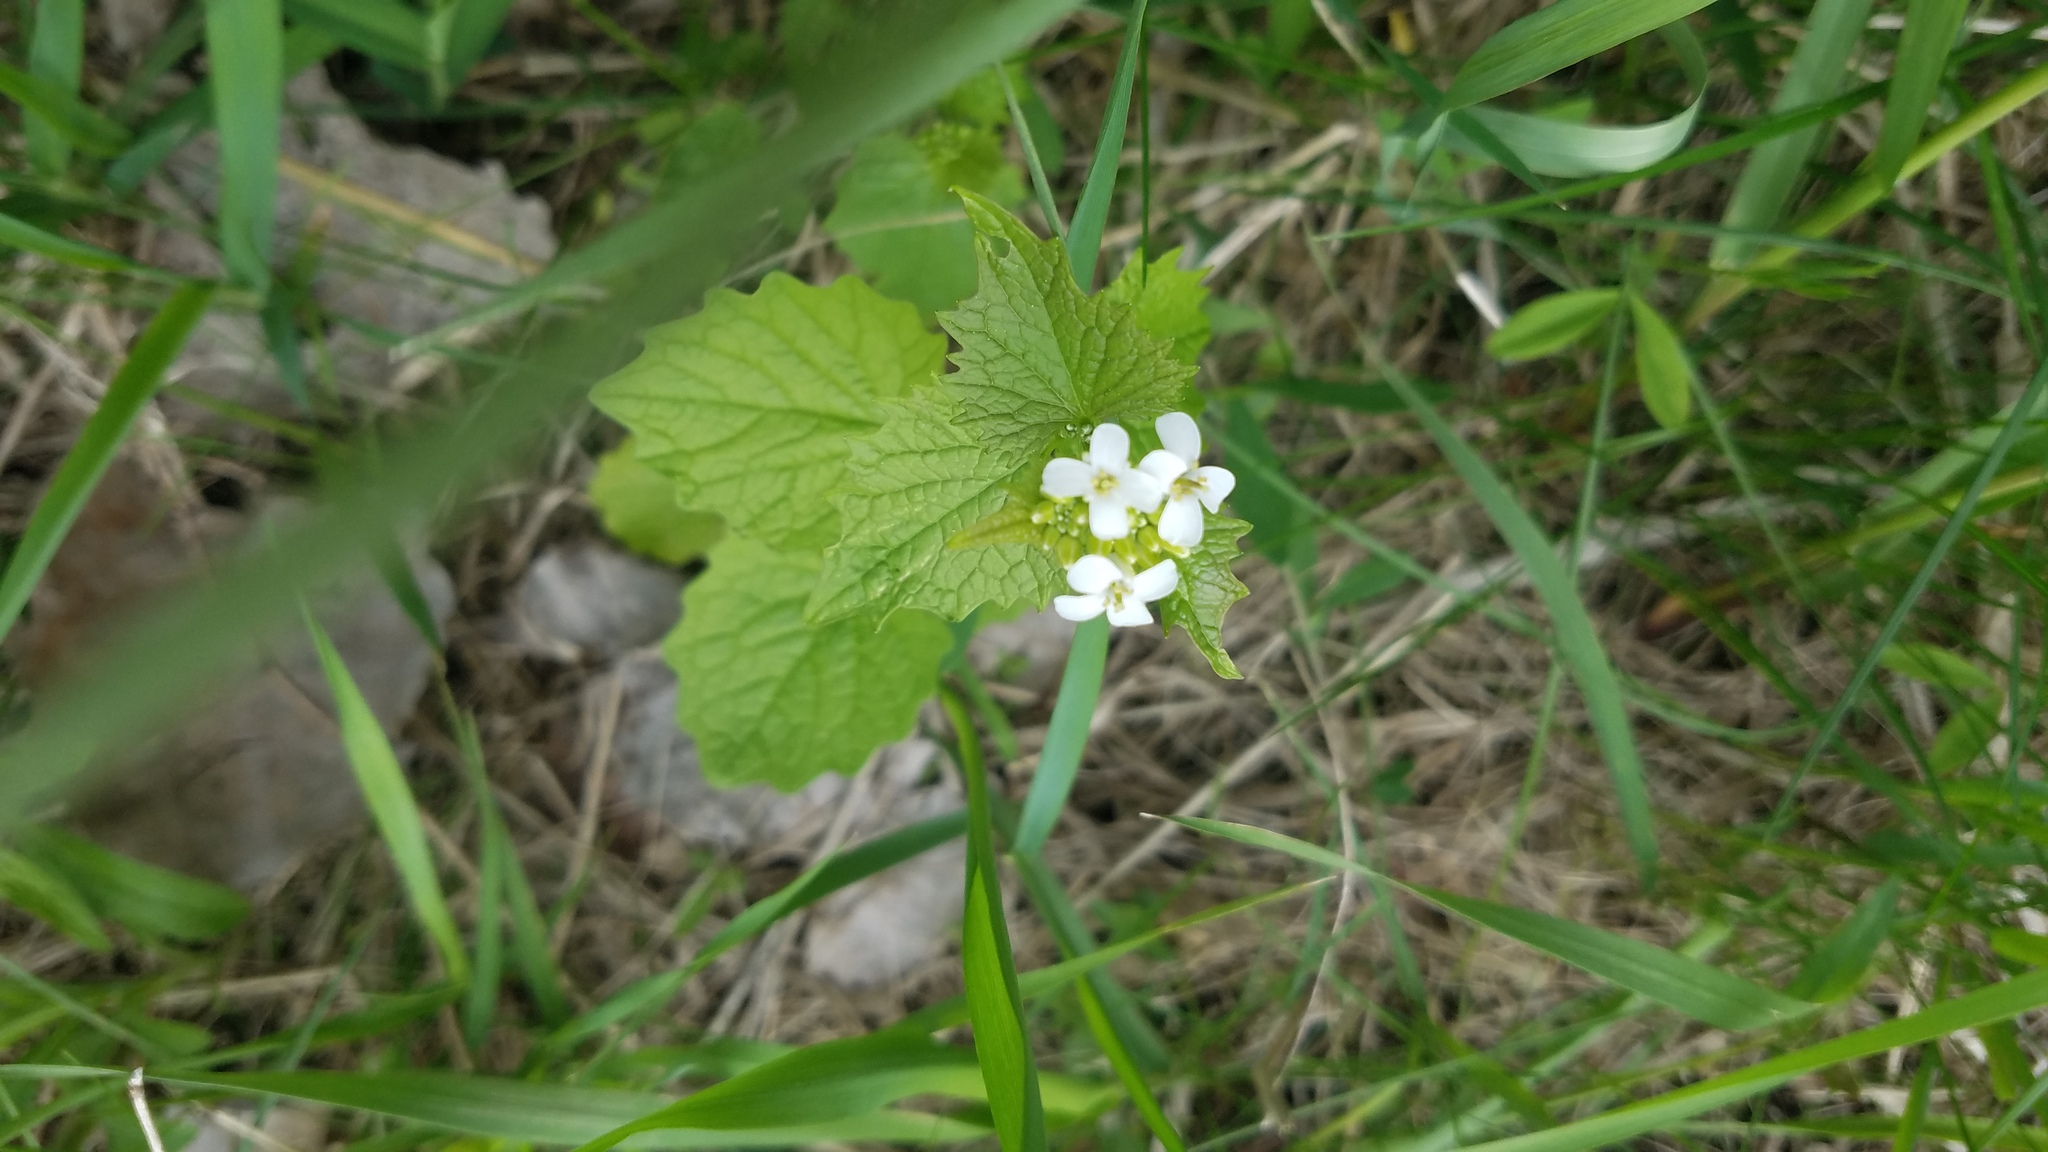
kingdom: Plantae
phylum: Tracheophyta
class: Magnoliopsida
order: Brassicales
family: Brassicaceae
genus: Alliaria
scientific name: Alliaria petiolata
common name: Garlic mustard
